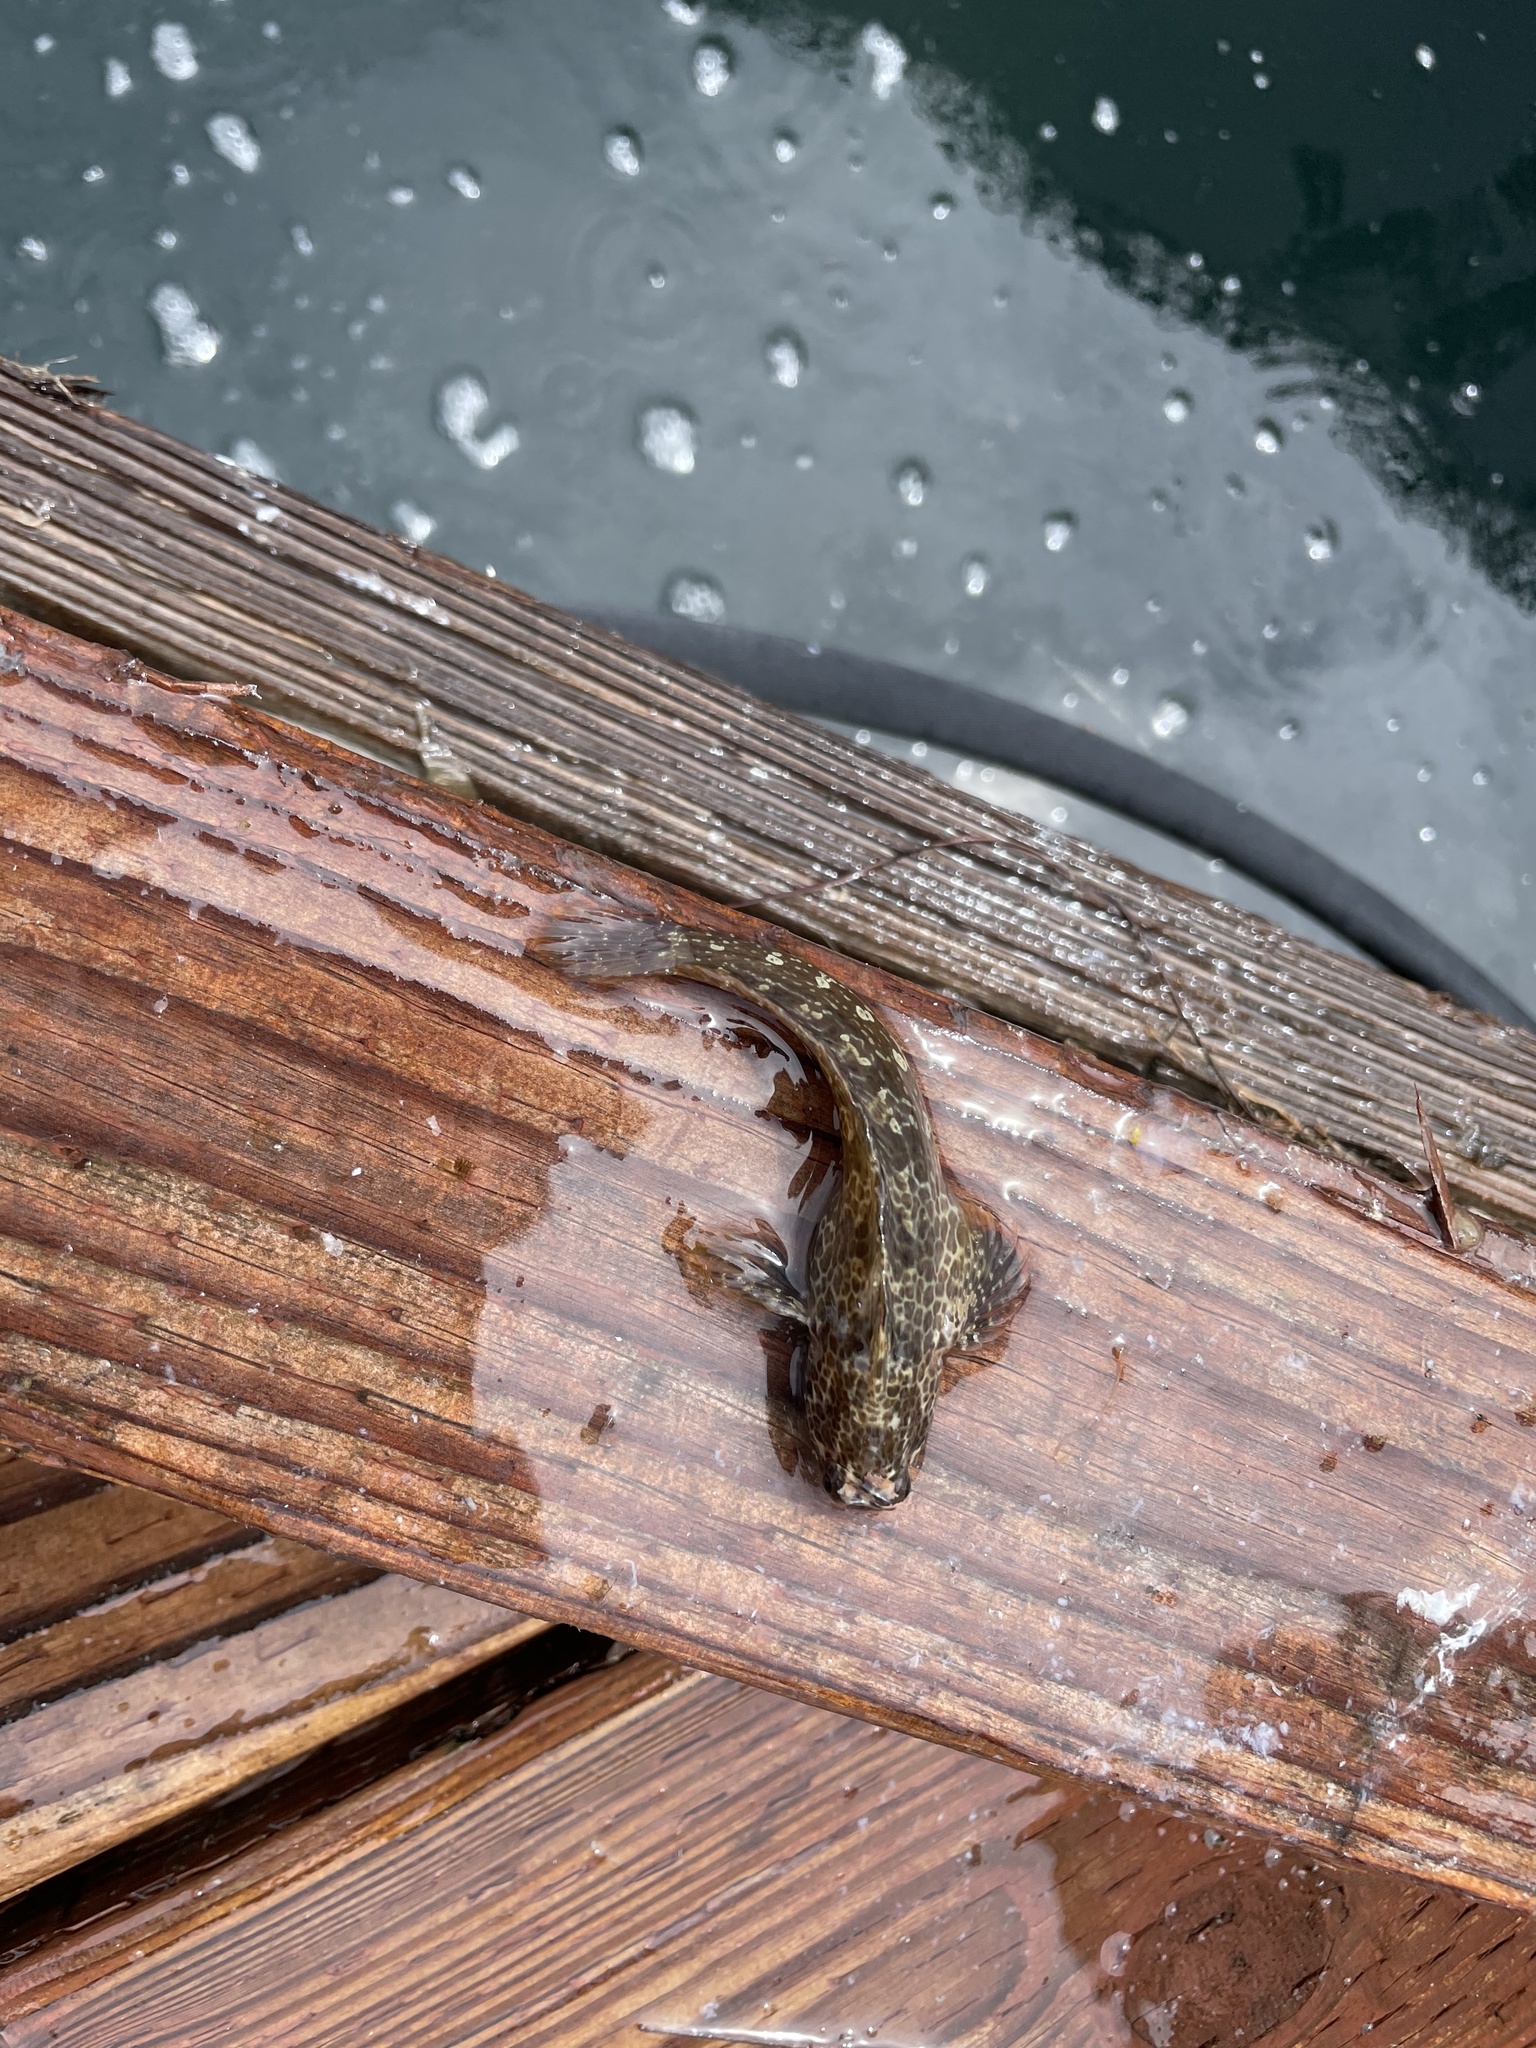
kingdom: Animalia
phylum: Chordata
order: Perciformes
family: Blenniidae
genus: Hypsoblennius
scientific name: Hypsoblennius gentilis
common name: Bay blenny
